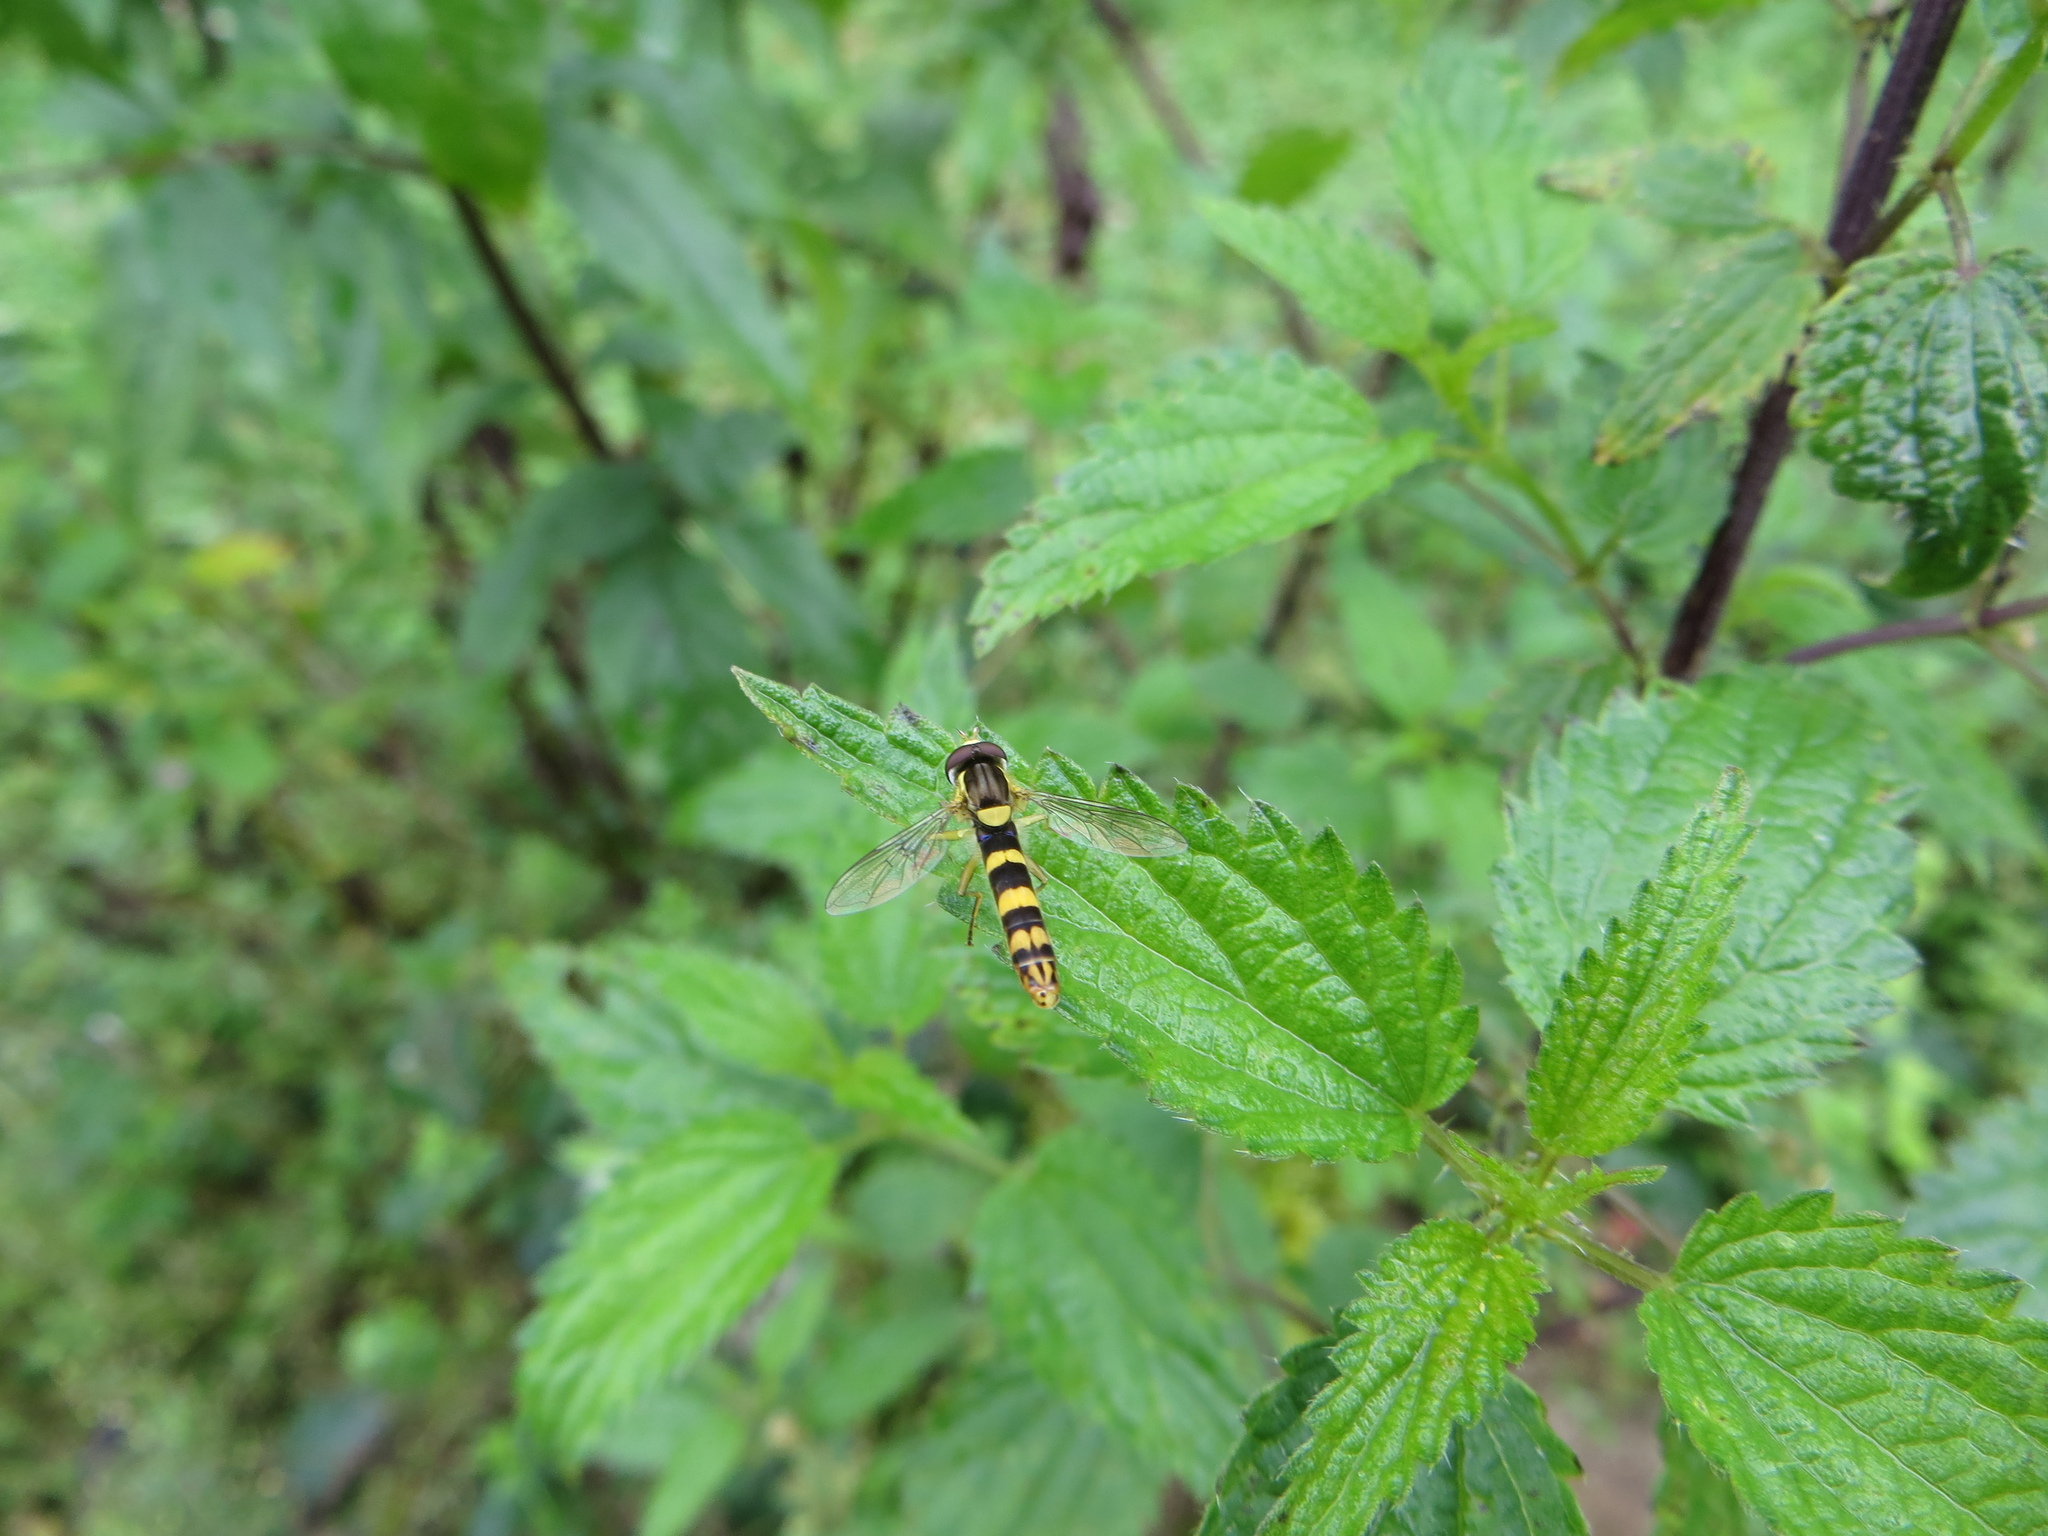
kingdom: Animalia
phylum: Arthropoda
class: Insecta
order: Diptera
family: Syrphidae
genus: Sphaerophoria
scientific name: Sphaerophoria scripta
